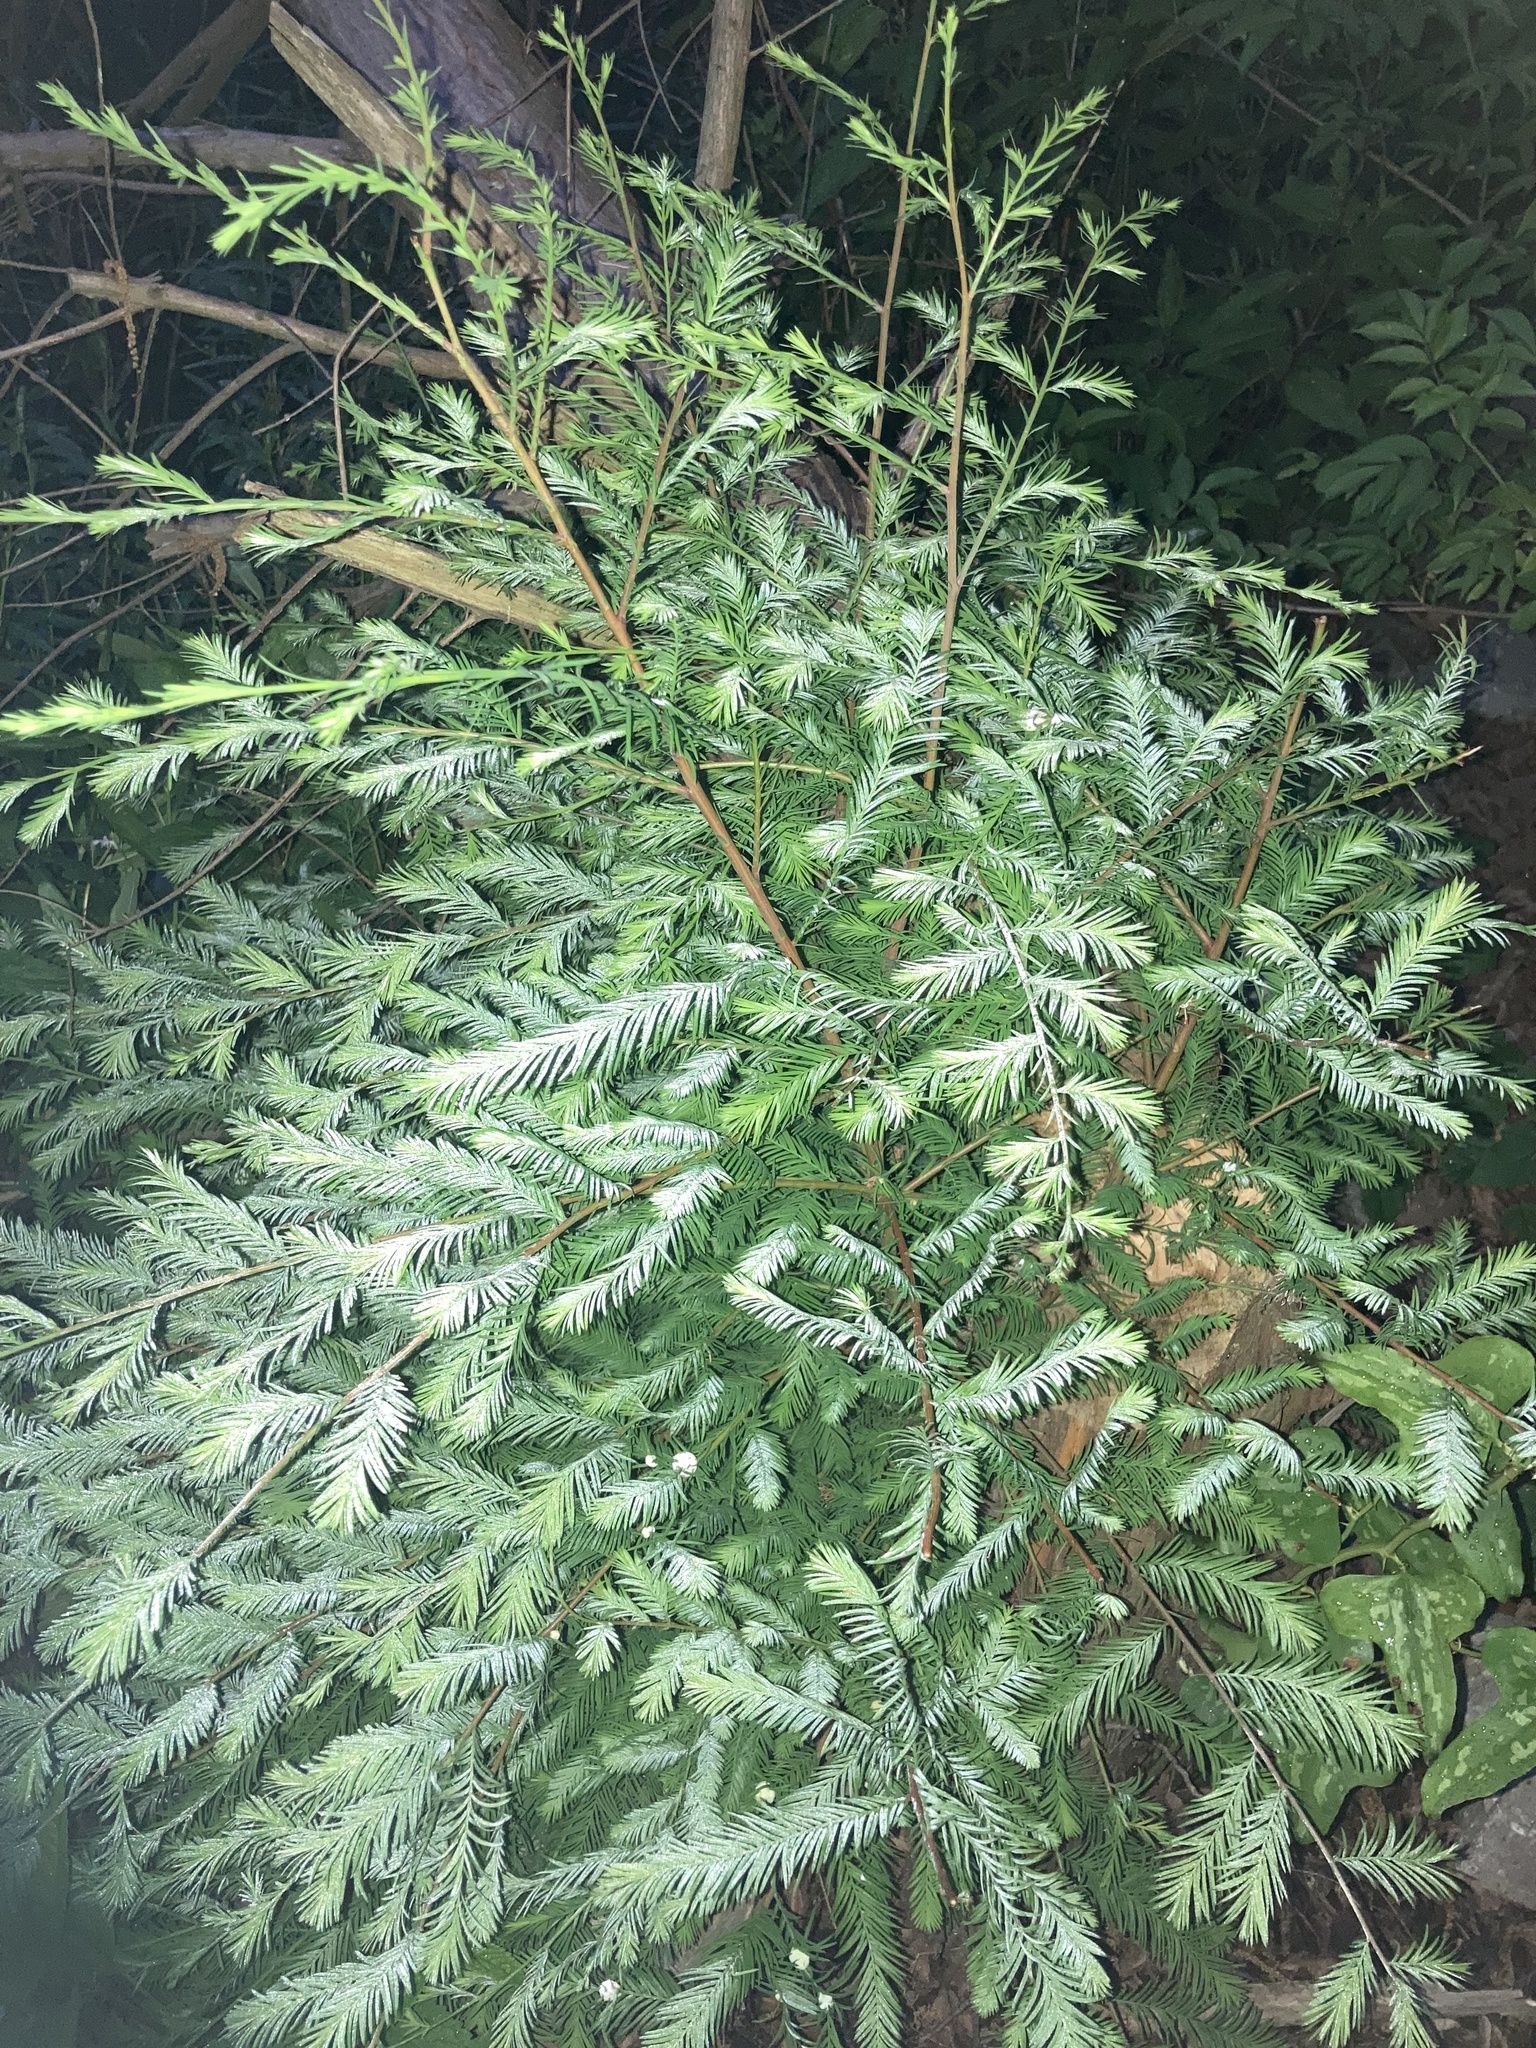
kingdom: Plantae
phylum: Tracheophyta
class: Pinopsida
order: Pinales
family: Cupressaceae
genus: Taxodium
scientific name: Taxodium distichum
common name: Bald cypress
